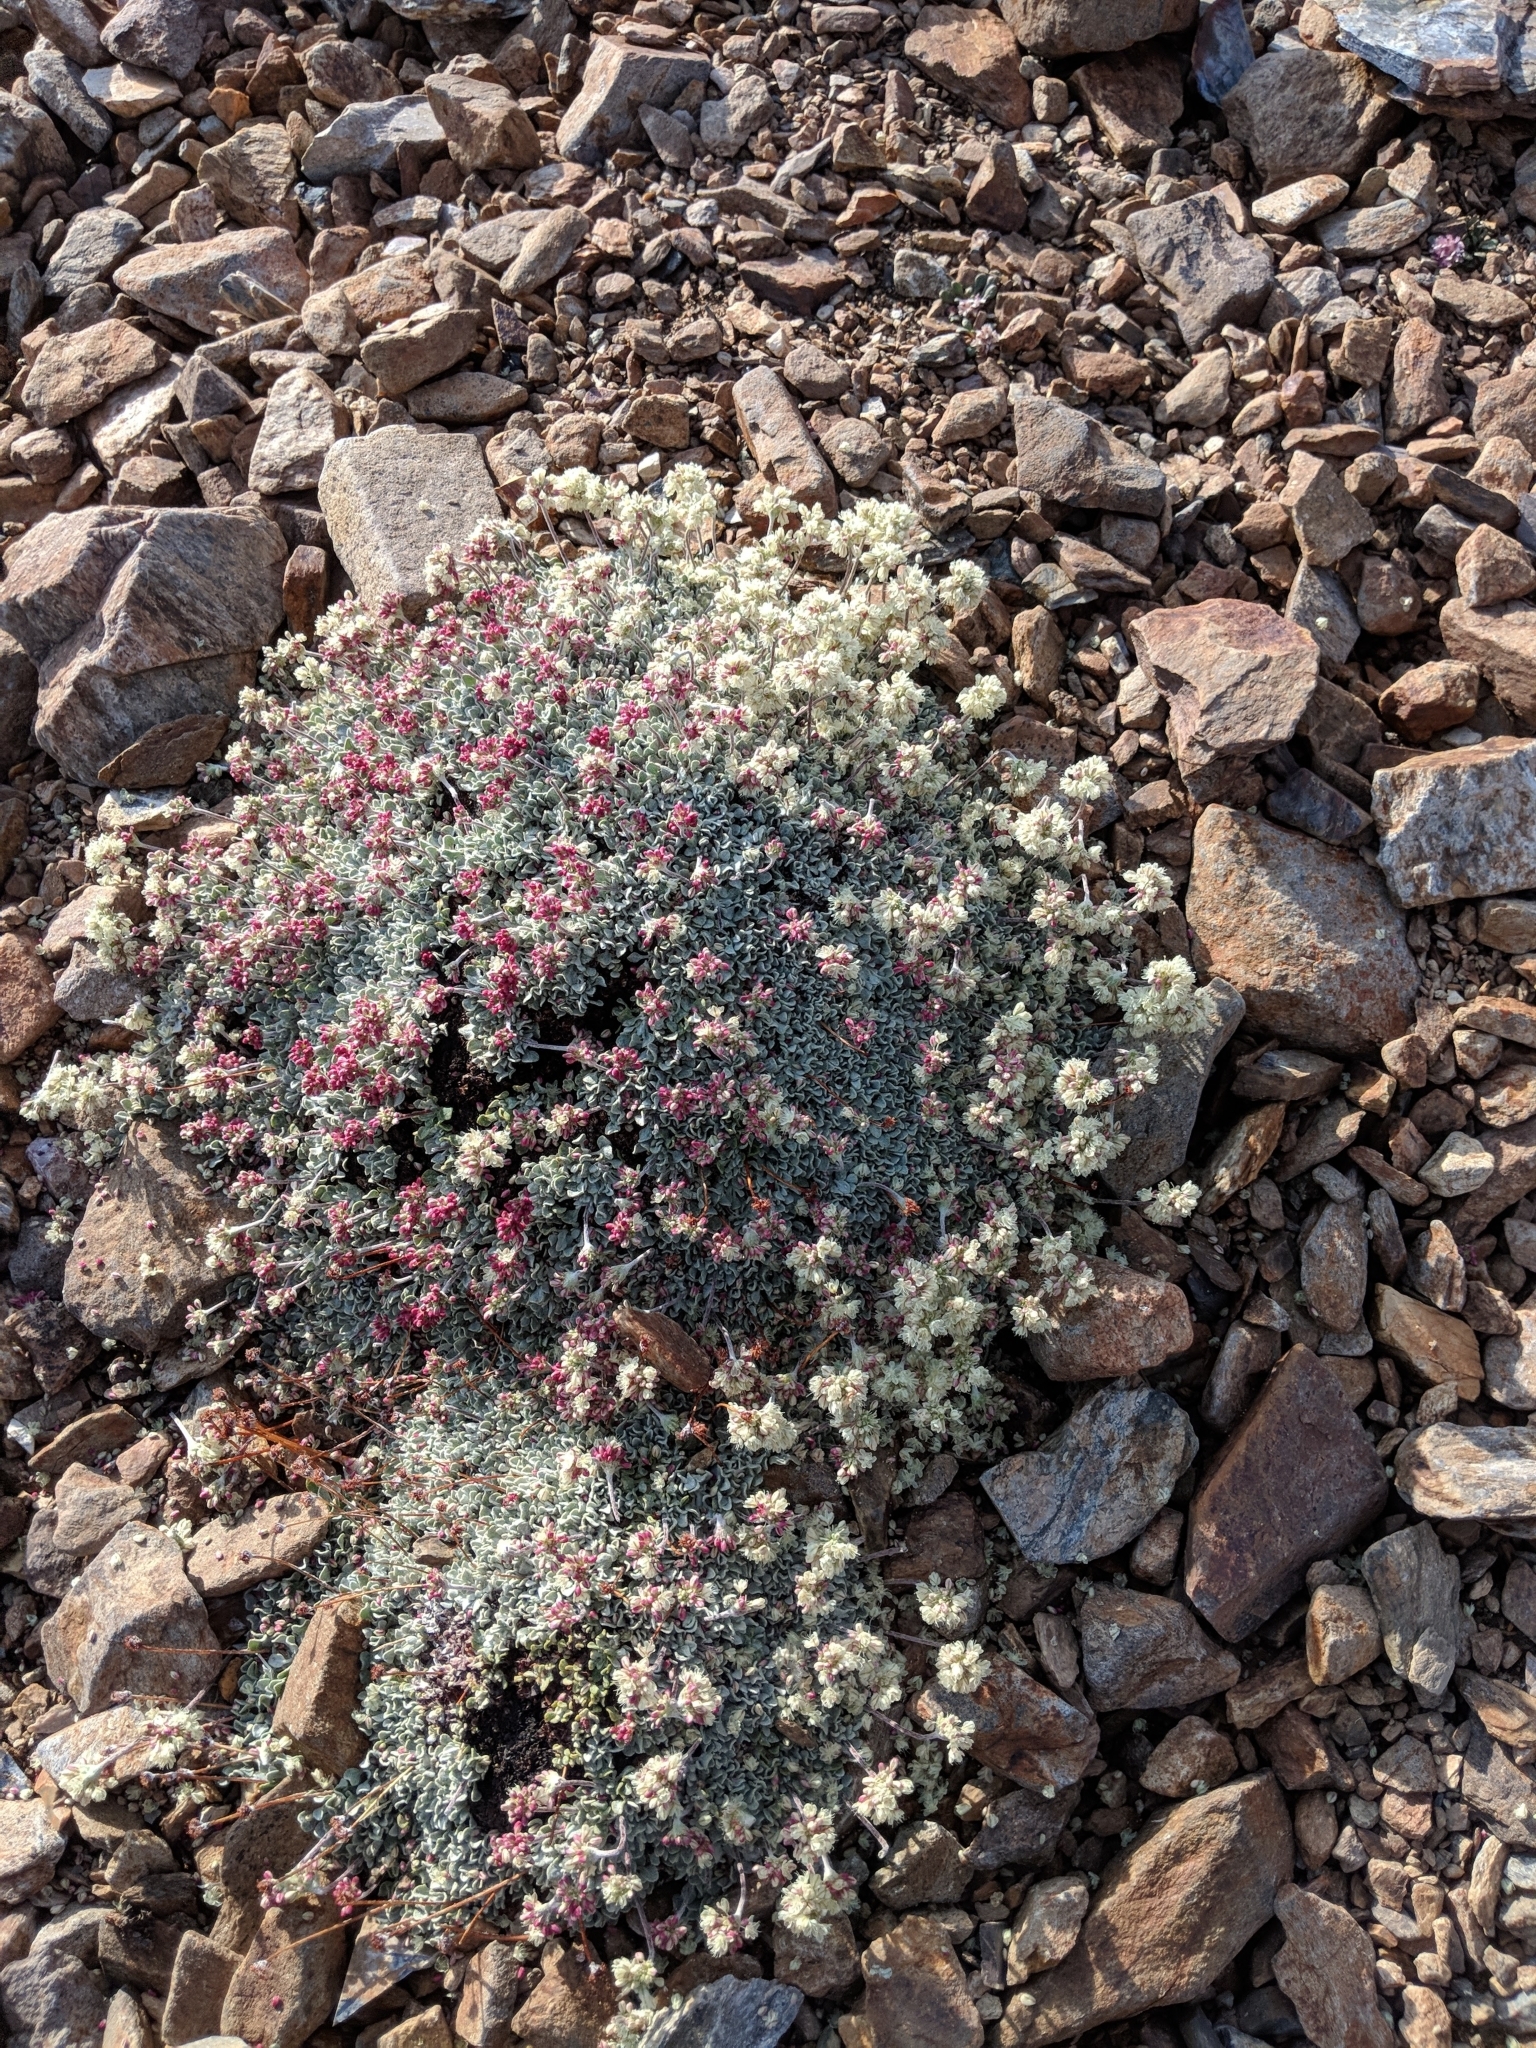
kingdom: Plantae
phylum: Tracheophyta
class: Magnoliopsida
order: Caryophyllales
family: Polygonaceae
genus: Eriogonum
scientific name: Eriogonum ovalifolium
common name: Cushion buckwheat
